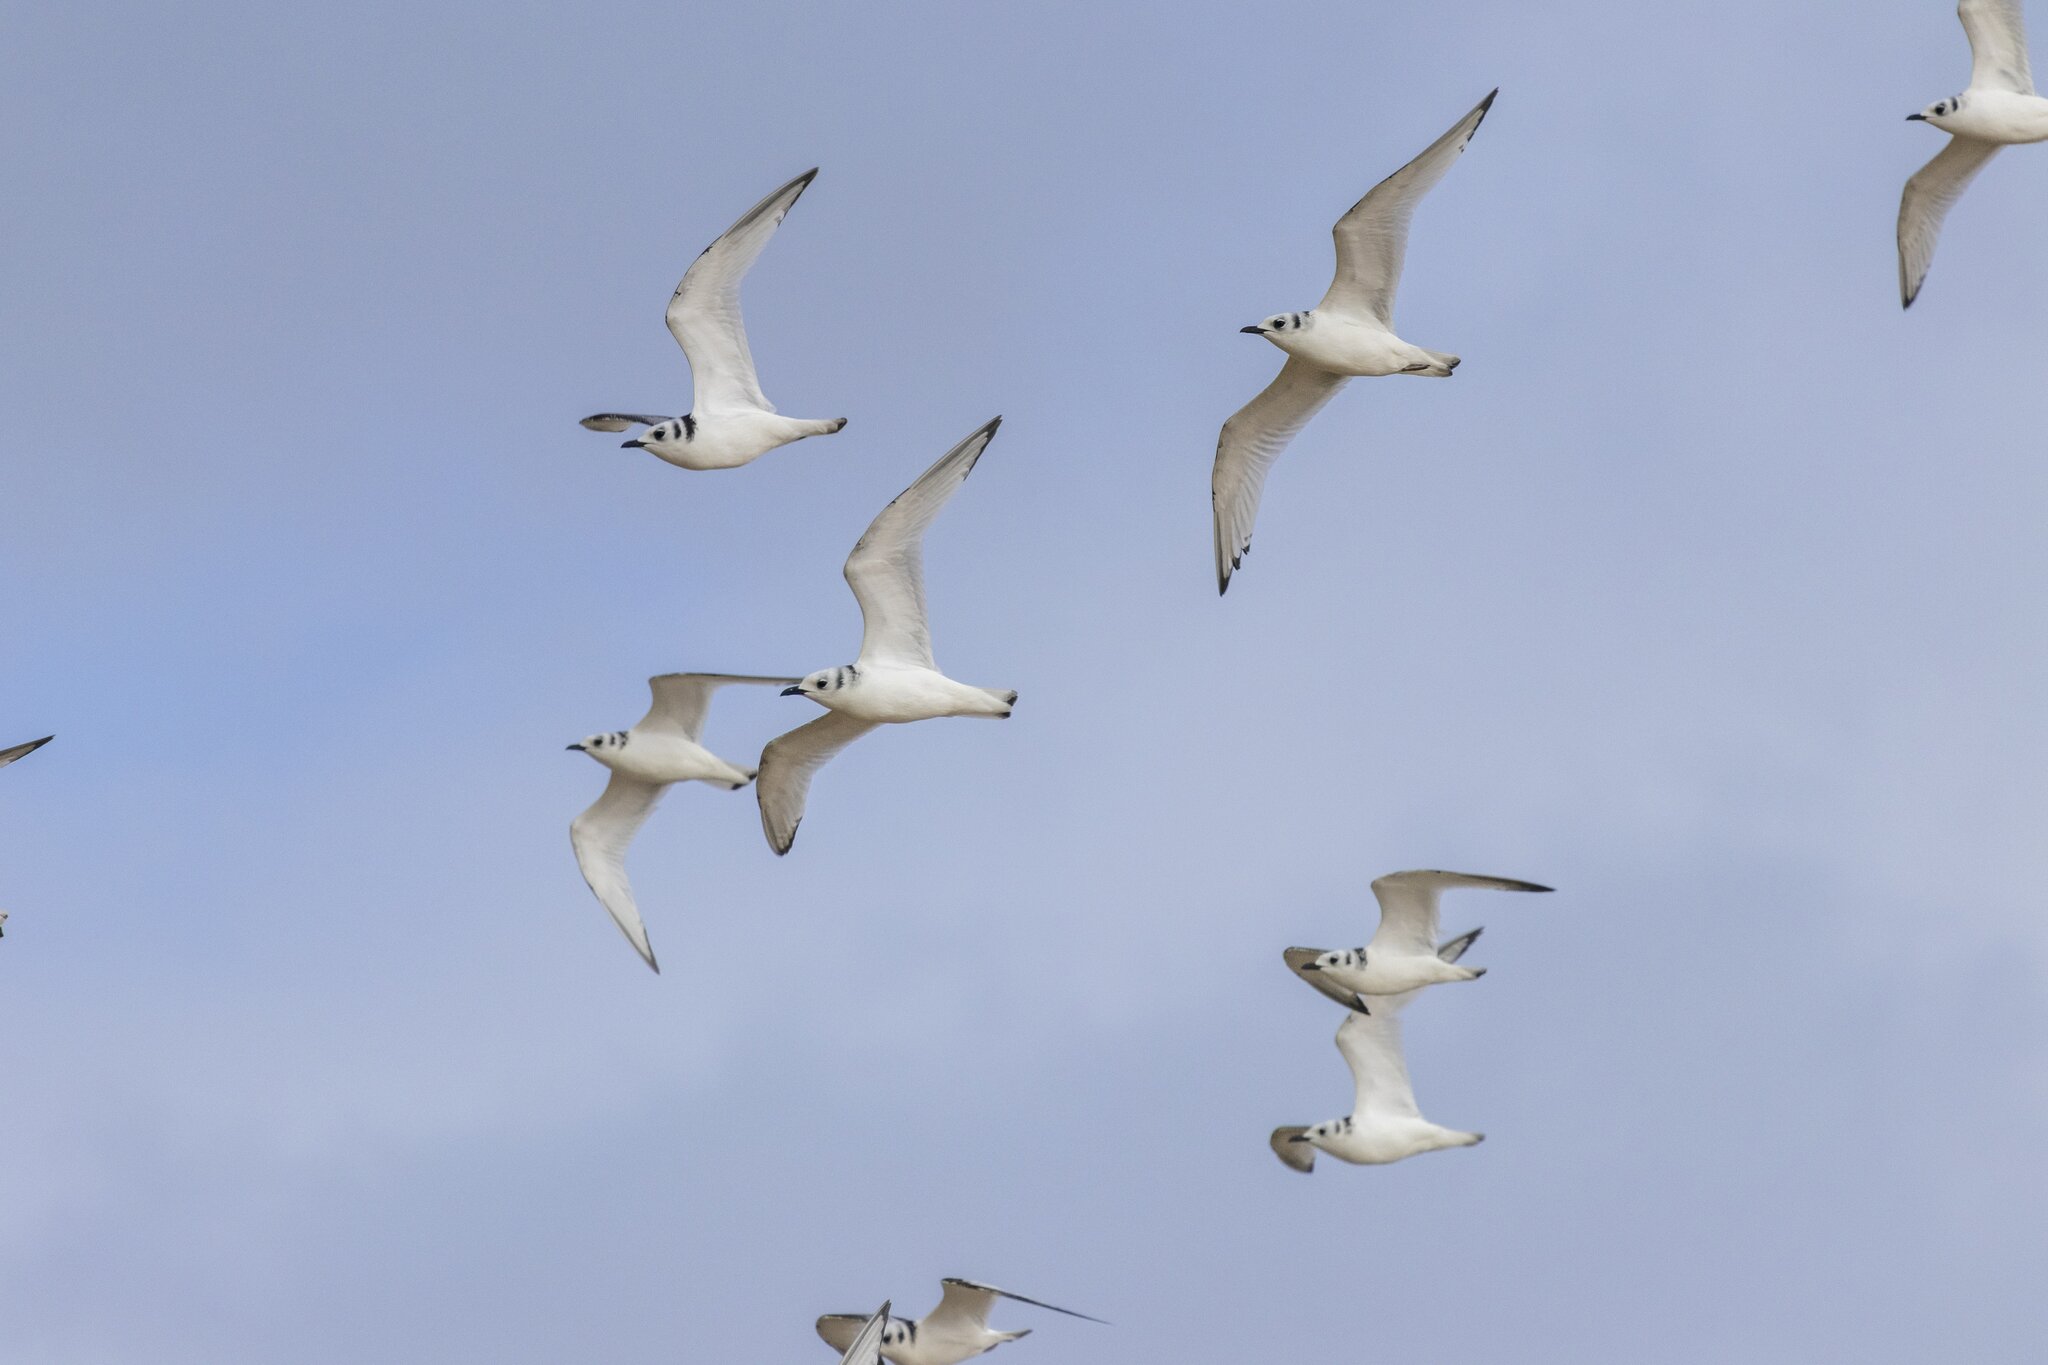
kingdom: Animalia
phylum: Chordata
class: Aves
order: Charadriiformes
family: Laridae
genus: Rissa
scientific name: Rissa tridactyla
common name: Black-legged kittiwake
